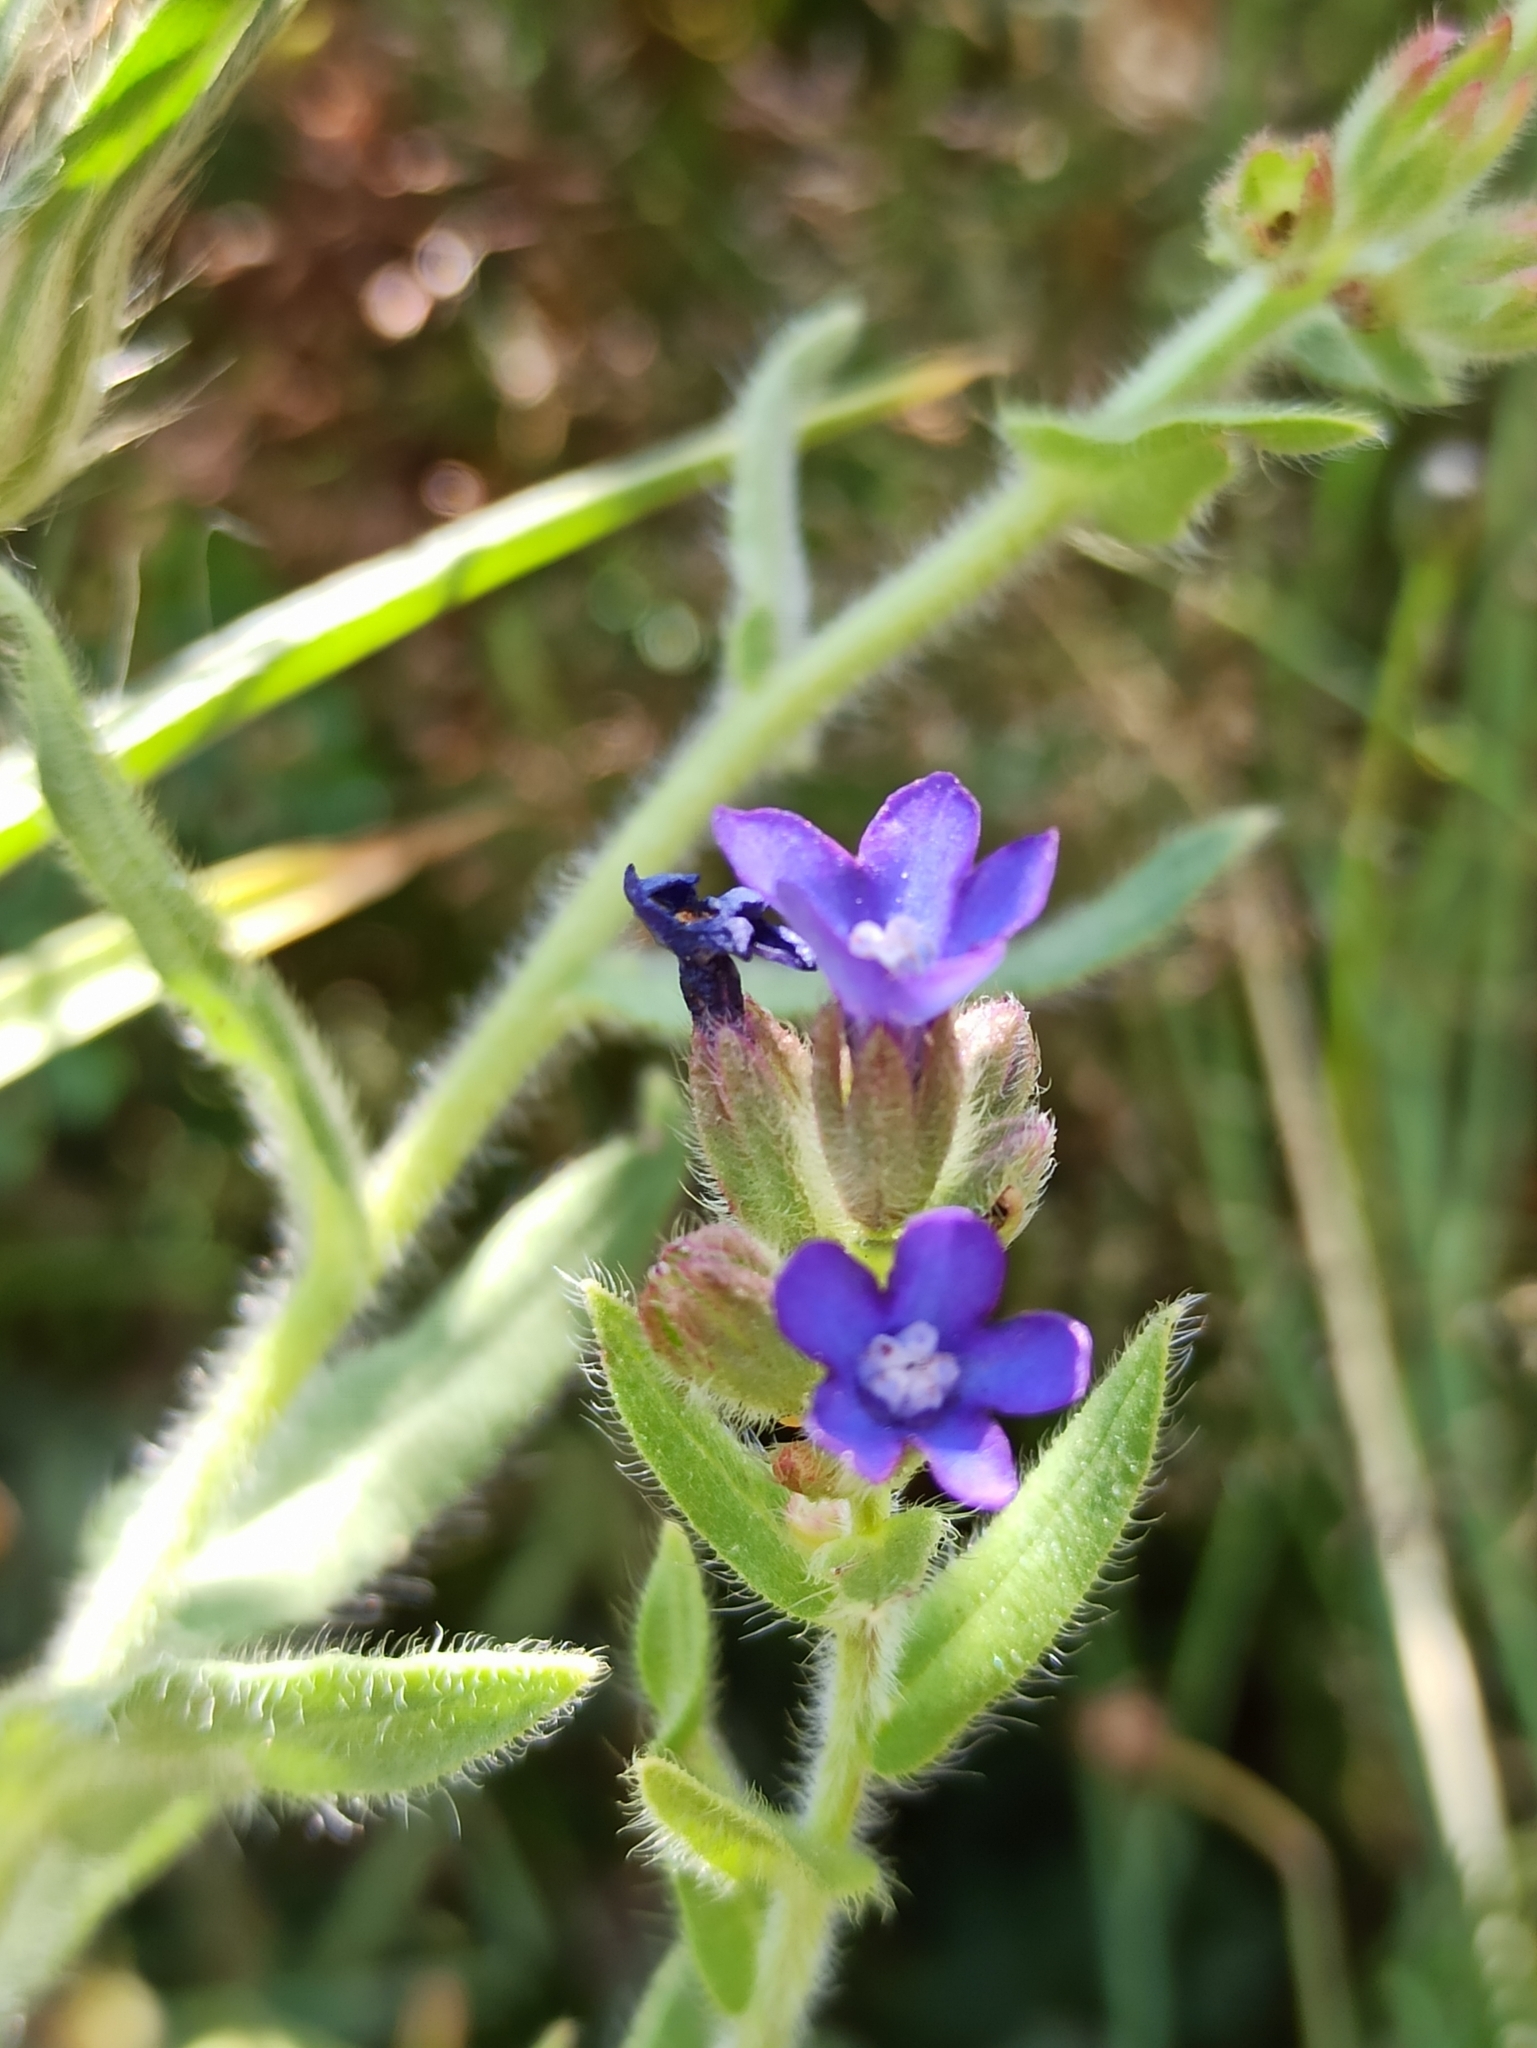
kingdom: Plantae
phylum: Tracheophyta
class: Magnoliopsida
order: Boraginales
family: Boraginaceae
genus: Anchusa
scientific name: Anchusa officinalis
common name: Alkanet
